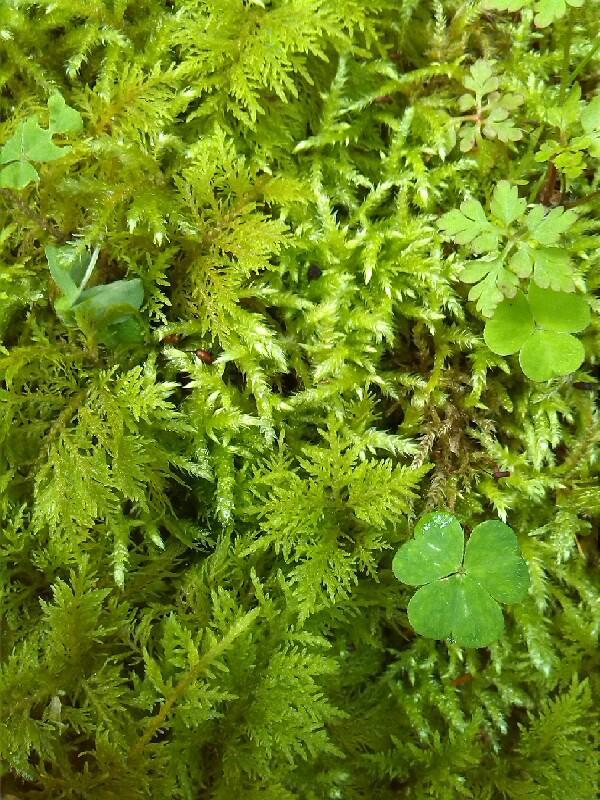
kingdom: Plantae
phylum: Bryophyta
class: Bryopsida
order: Hypnales
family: Brachytheciaceae
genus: Brachythecium
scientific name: Brachythecium rutabulum
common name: Rough-stalked feather-moss
